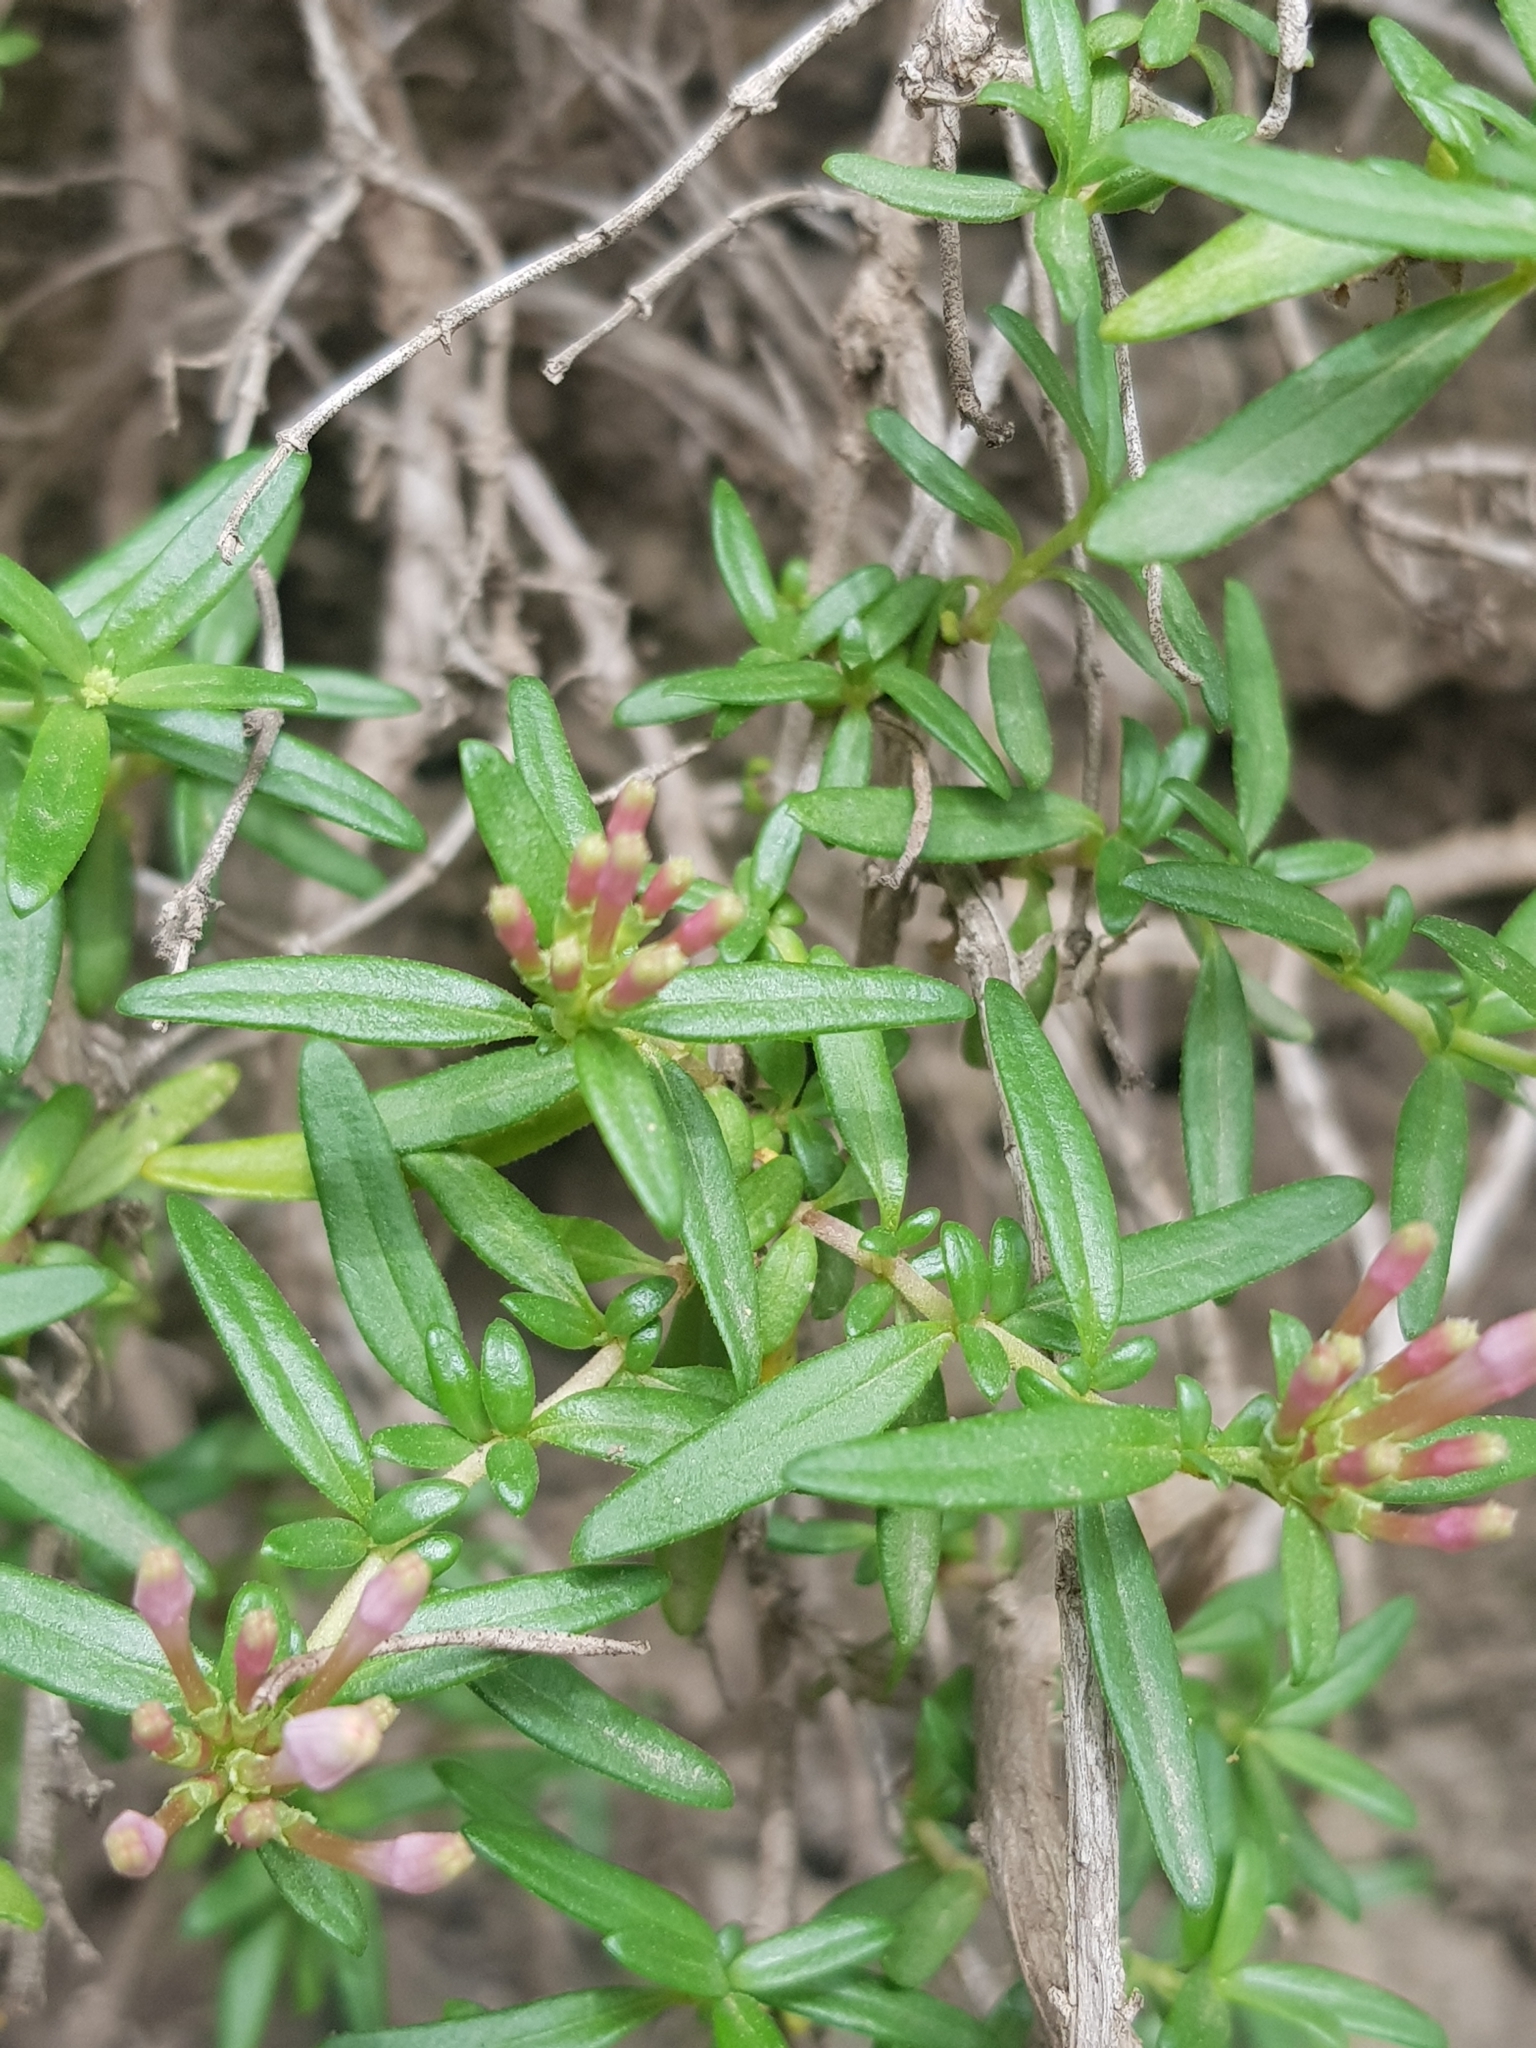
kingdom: Plantae
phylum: Tracheophyta
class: Magnoliopsida
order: Gentianales
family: Rubiaceae
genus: Plocama
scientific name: Plocama calabrica
